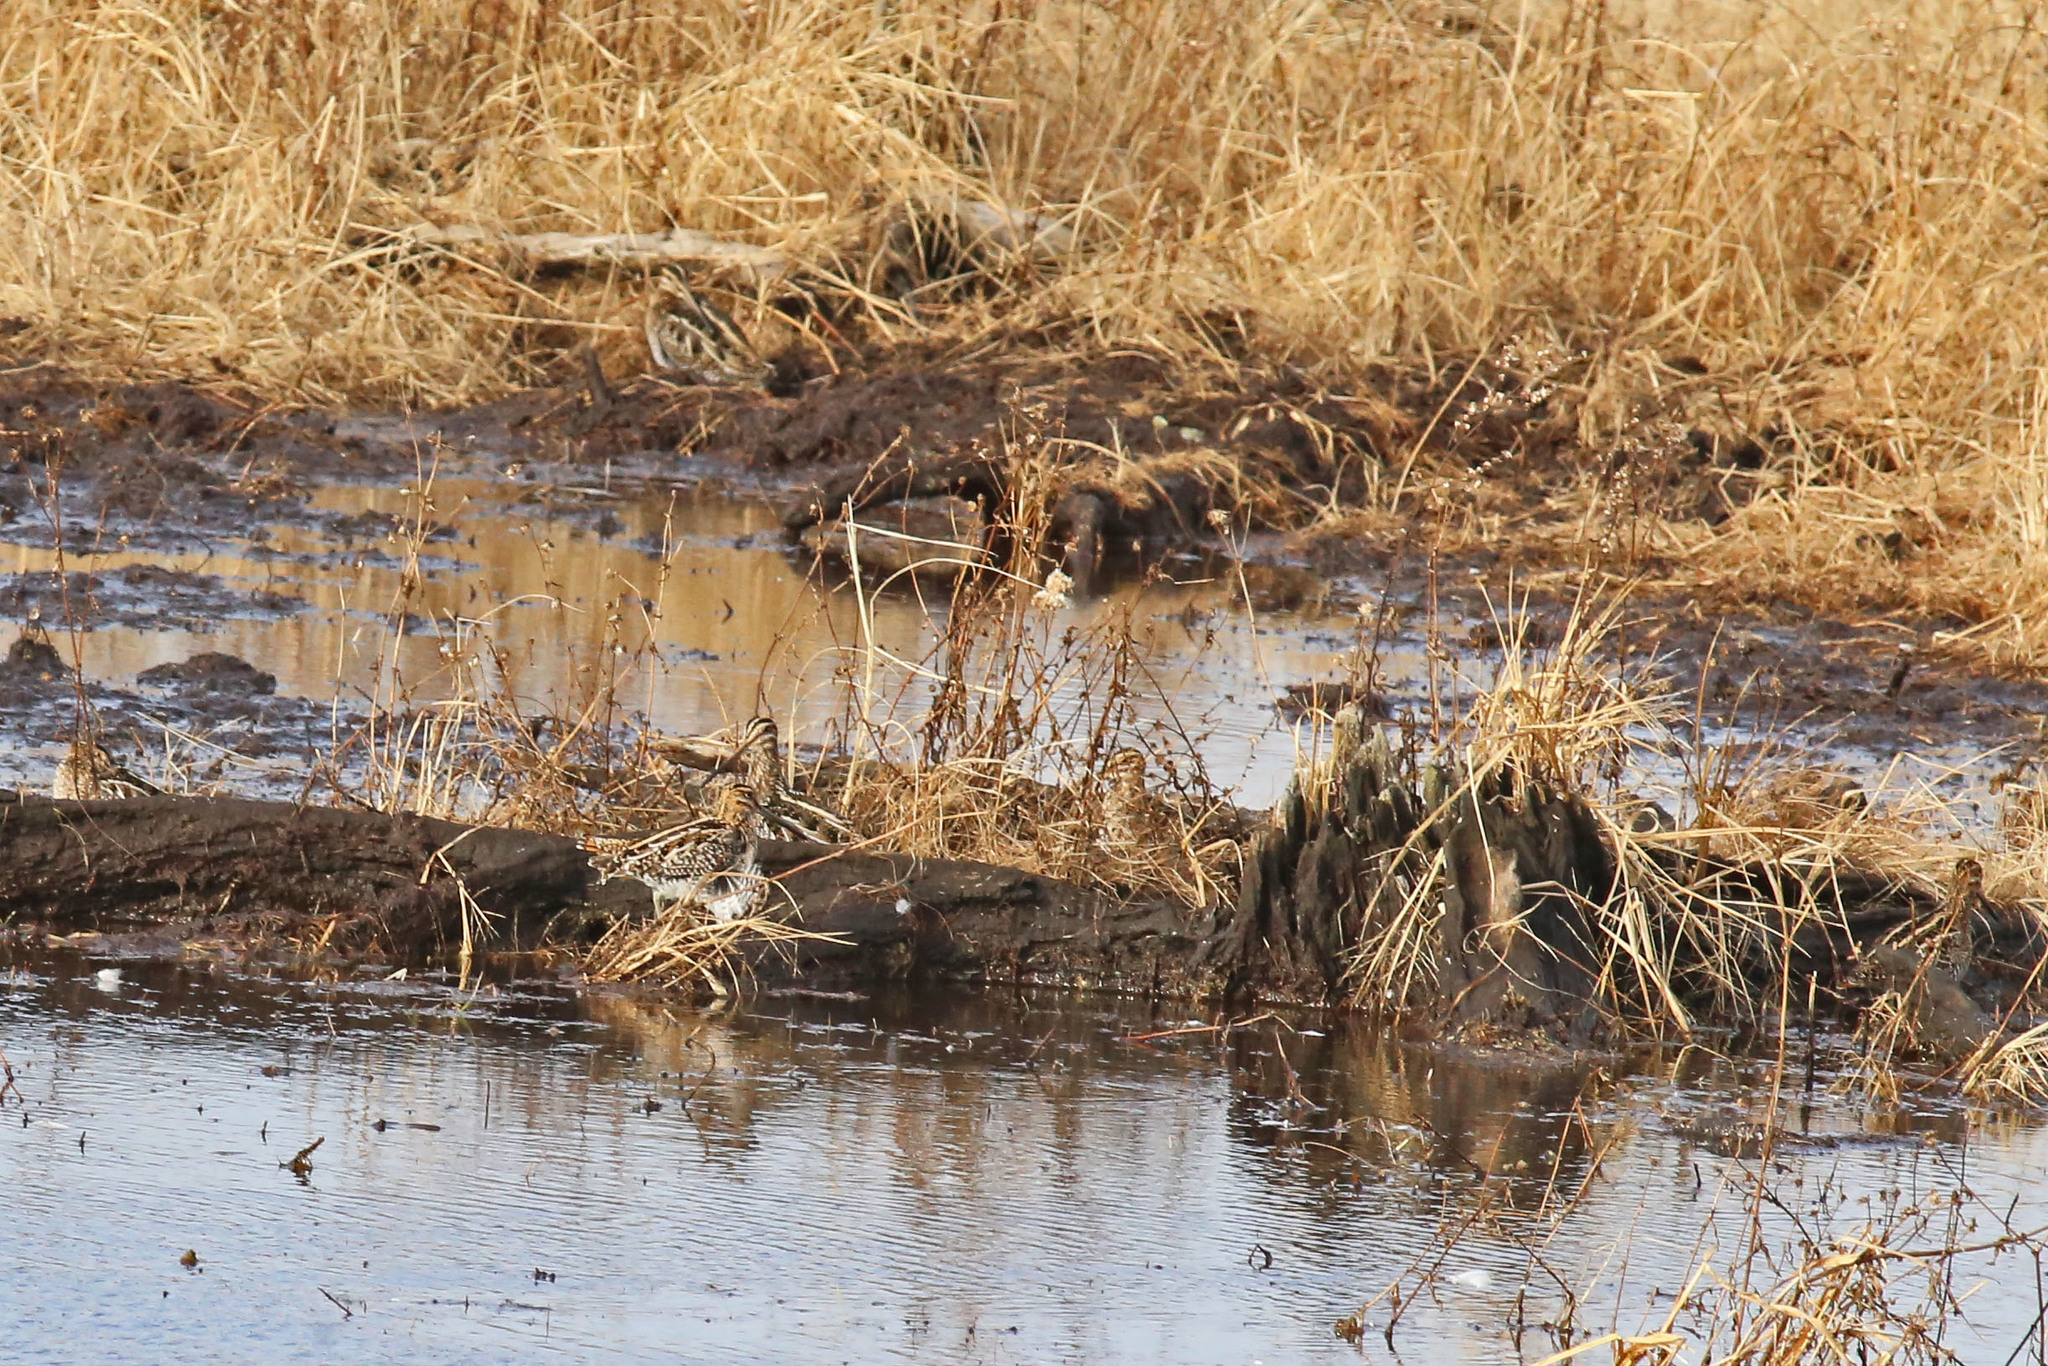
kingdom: Animalia
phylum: Chordata
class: Aves
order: Charadriiformes
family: Scolopacidae
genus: Gallinago
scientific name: Gallinago delicata
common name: Wilson's snipe
